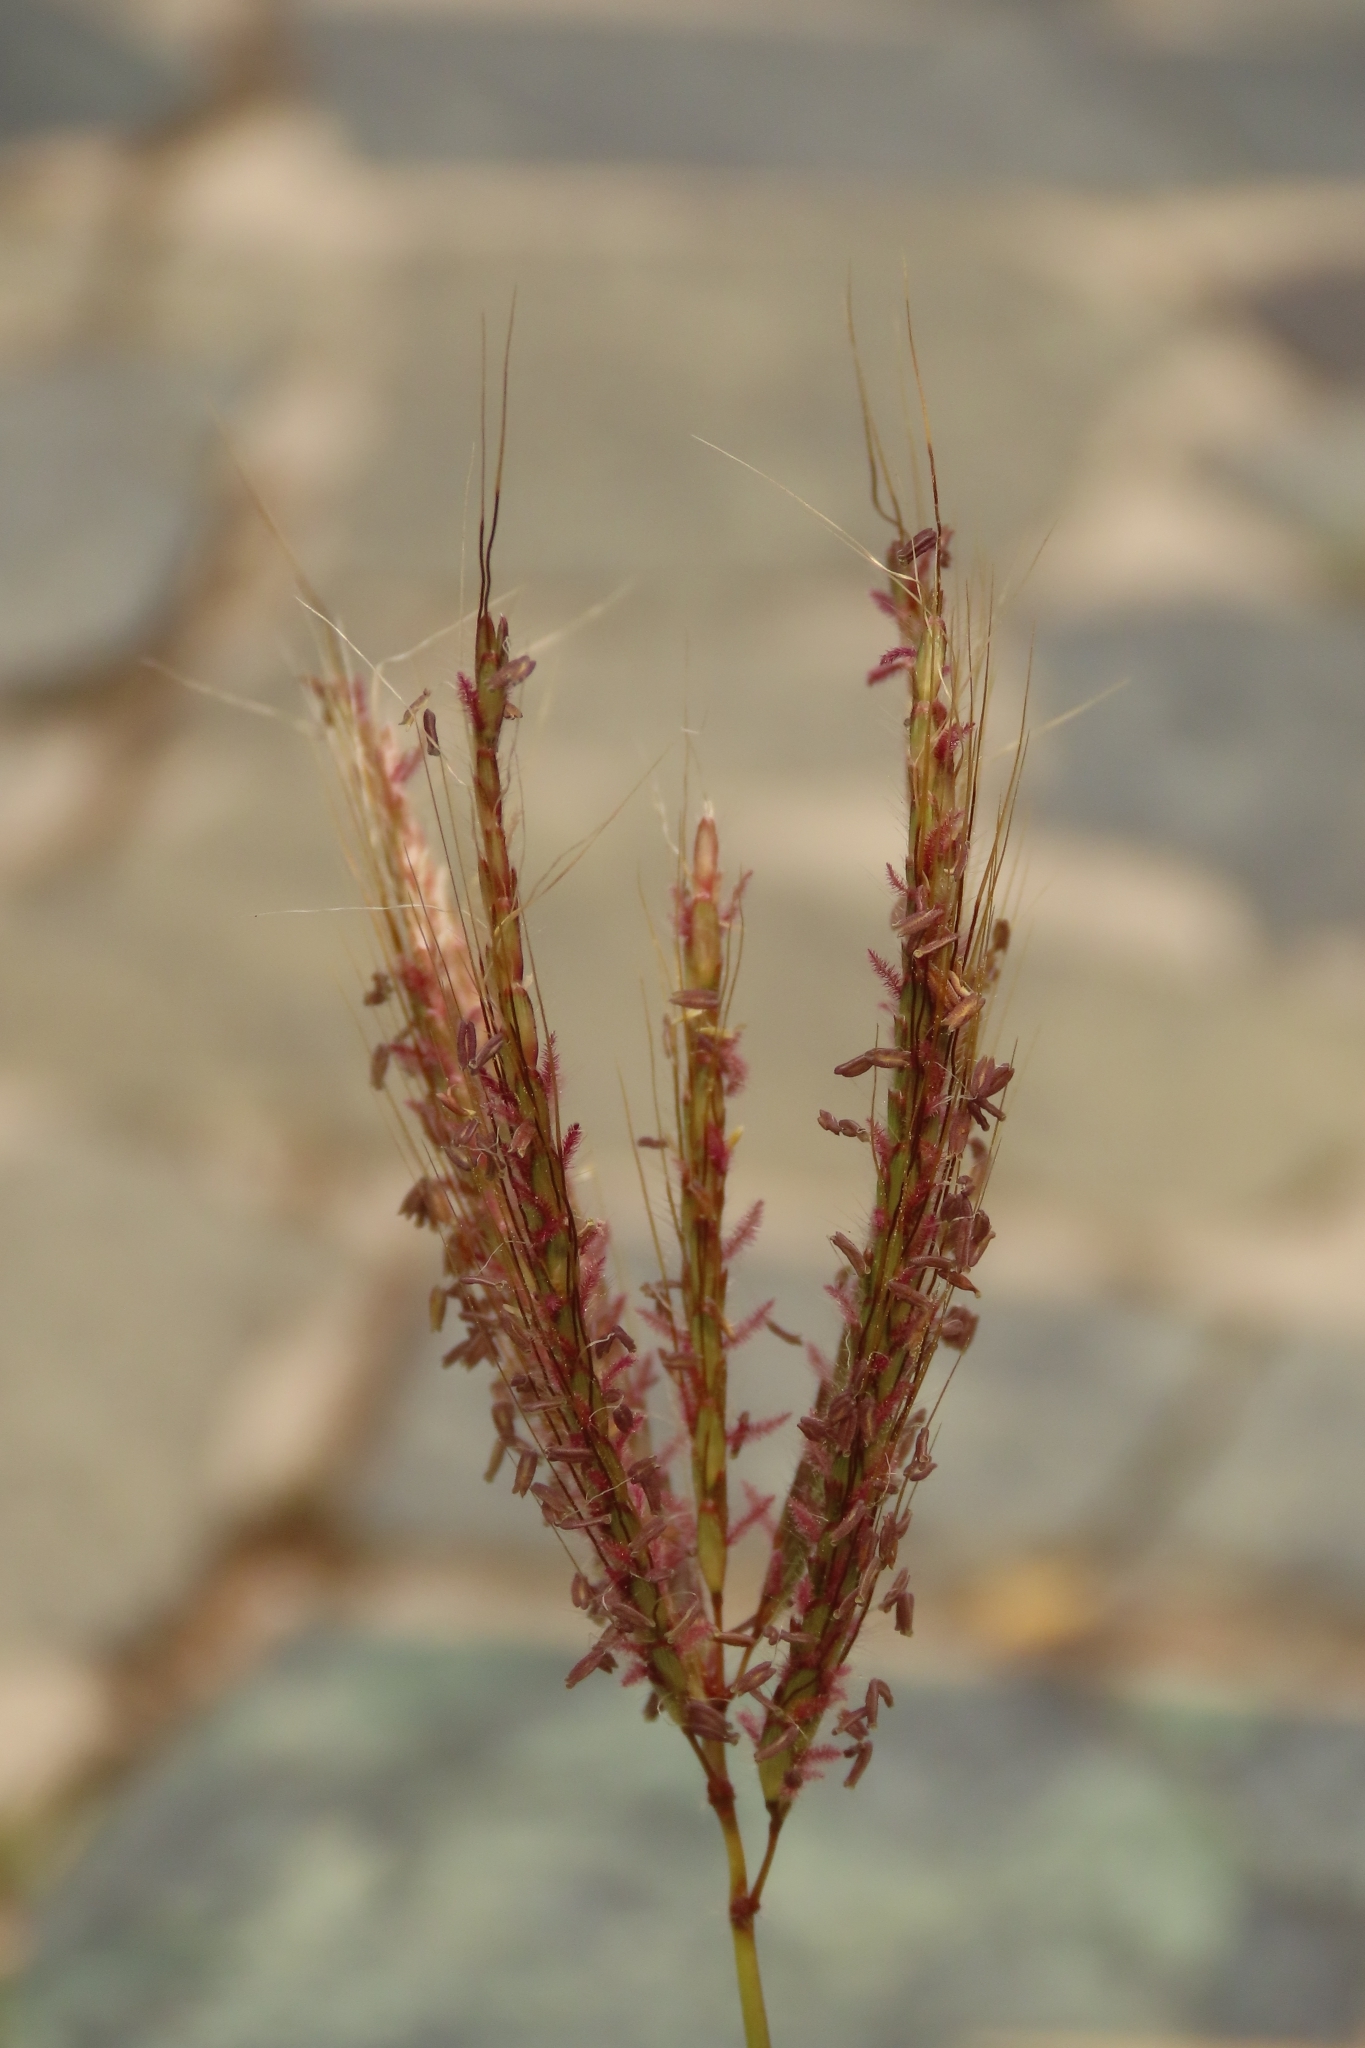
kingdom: Plantae
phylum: Tracheophyta
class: Liliopsida
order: Poales
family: Poaceae
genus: Dichanthium
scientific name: Dichanthium annulatum
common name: Kleberg's bluestem
